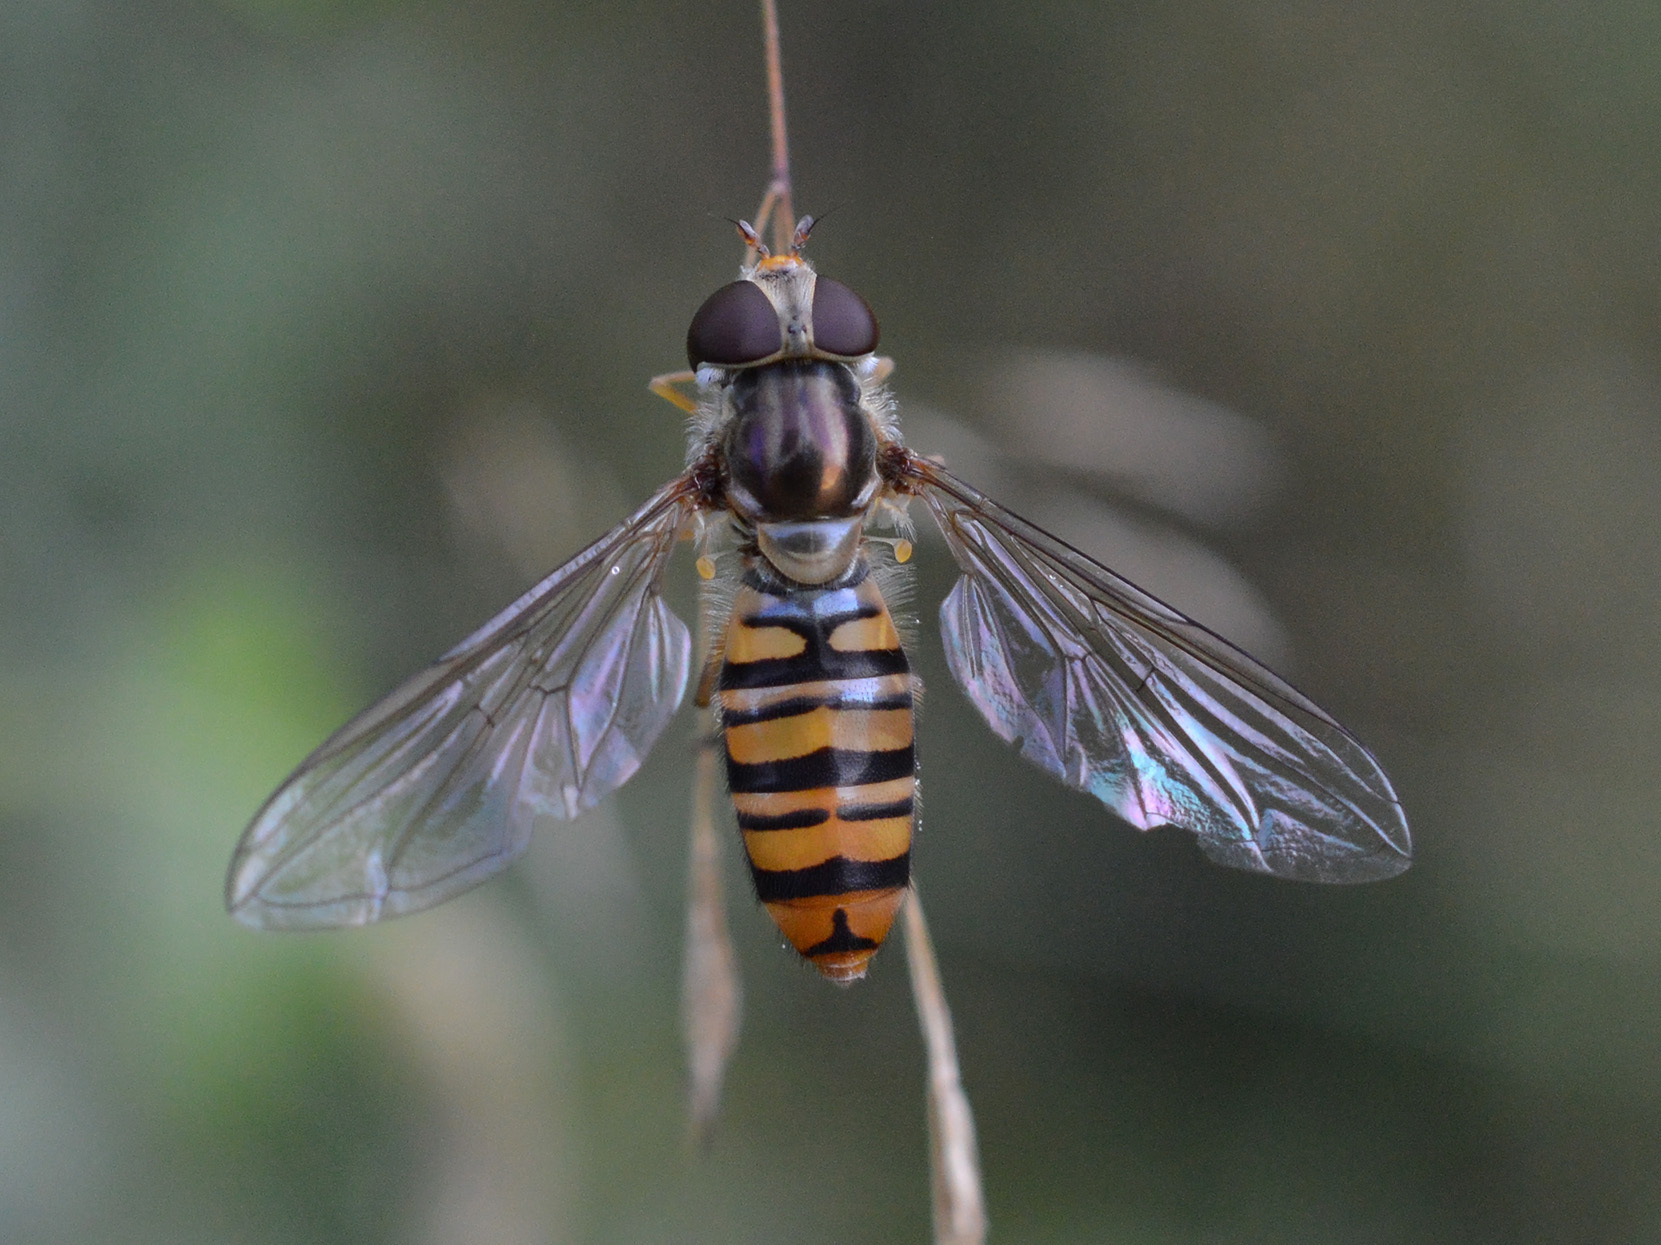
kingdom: Animalia
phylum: Arthropoda
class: Insecta
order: Diptera
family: Syrphidae
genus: Episyrphus
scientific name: Episyrphus balteatus
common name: Marmalade hoverfly
